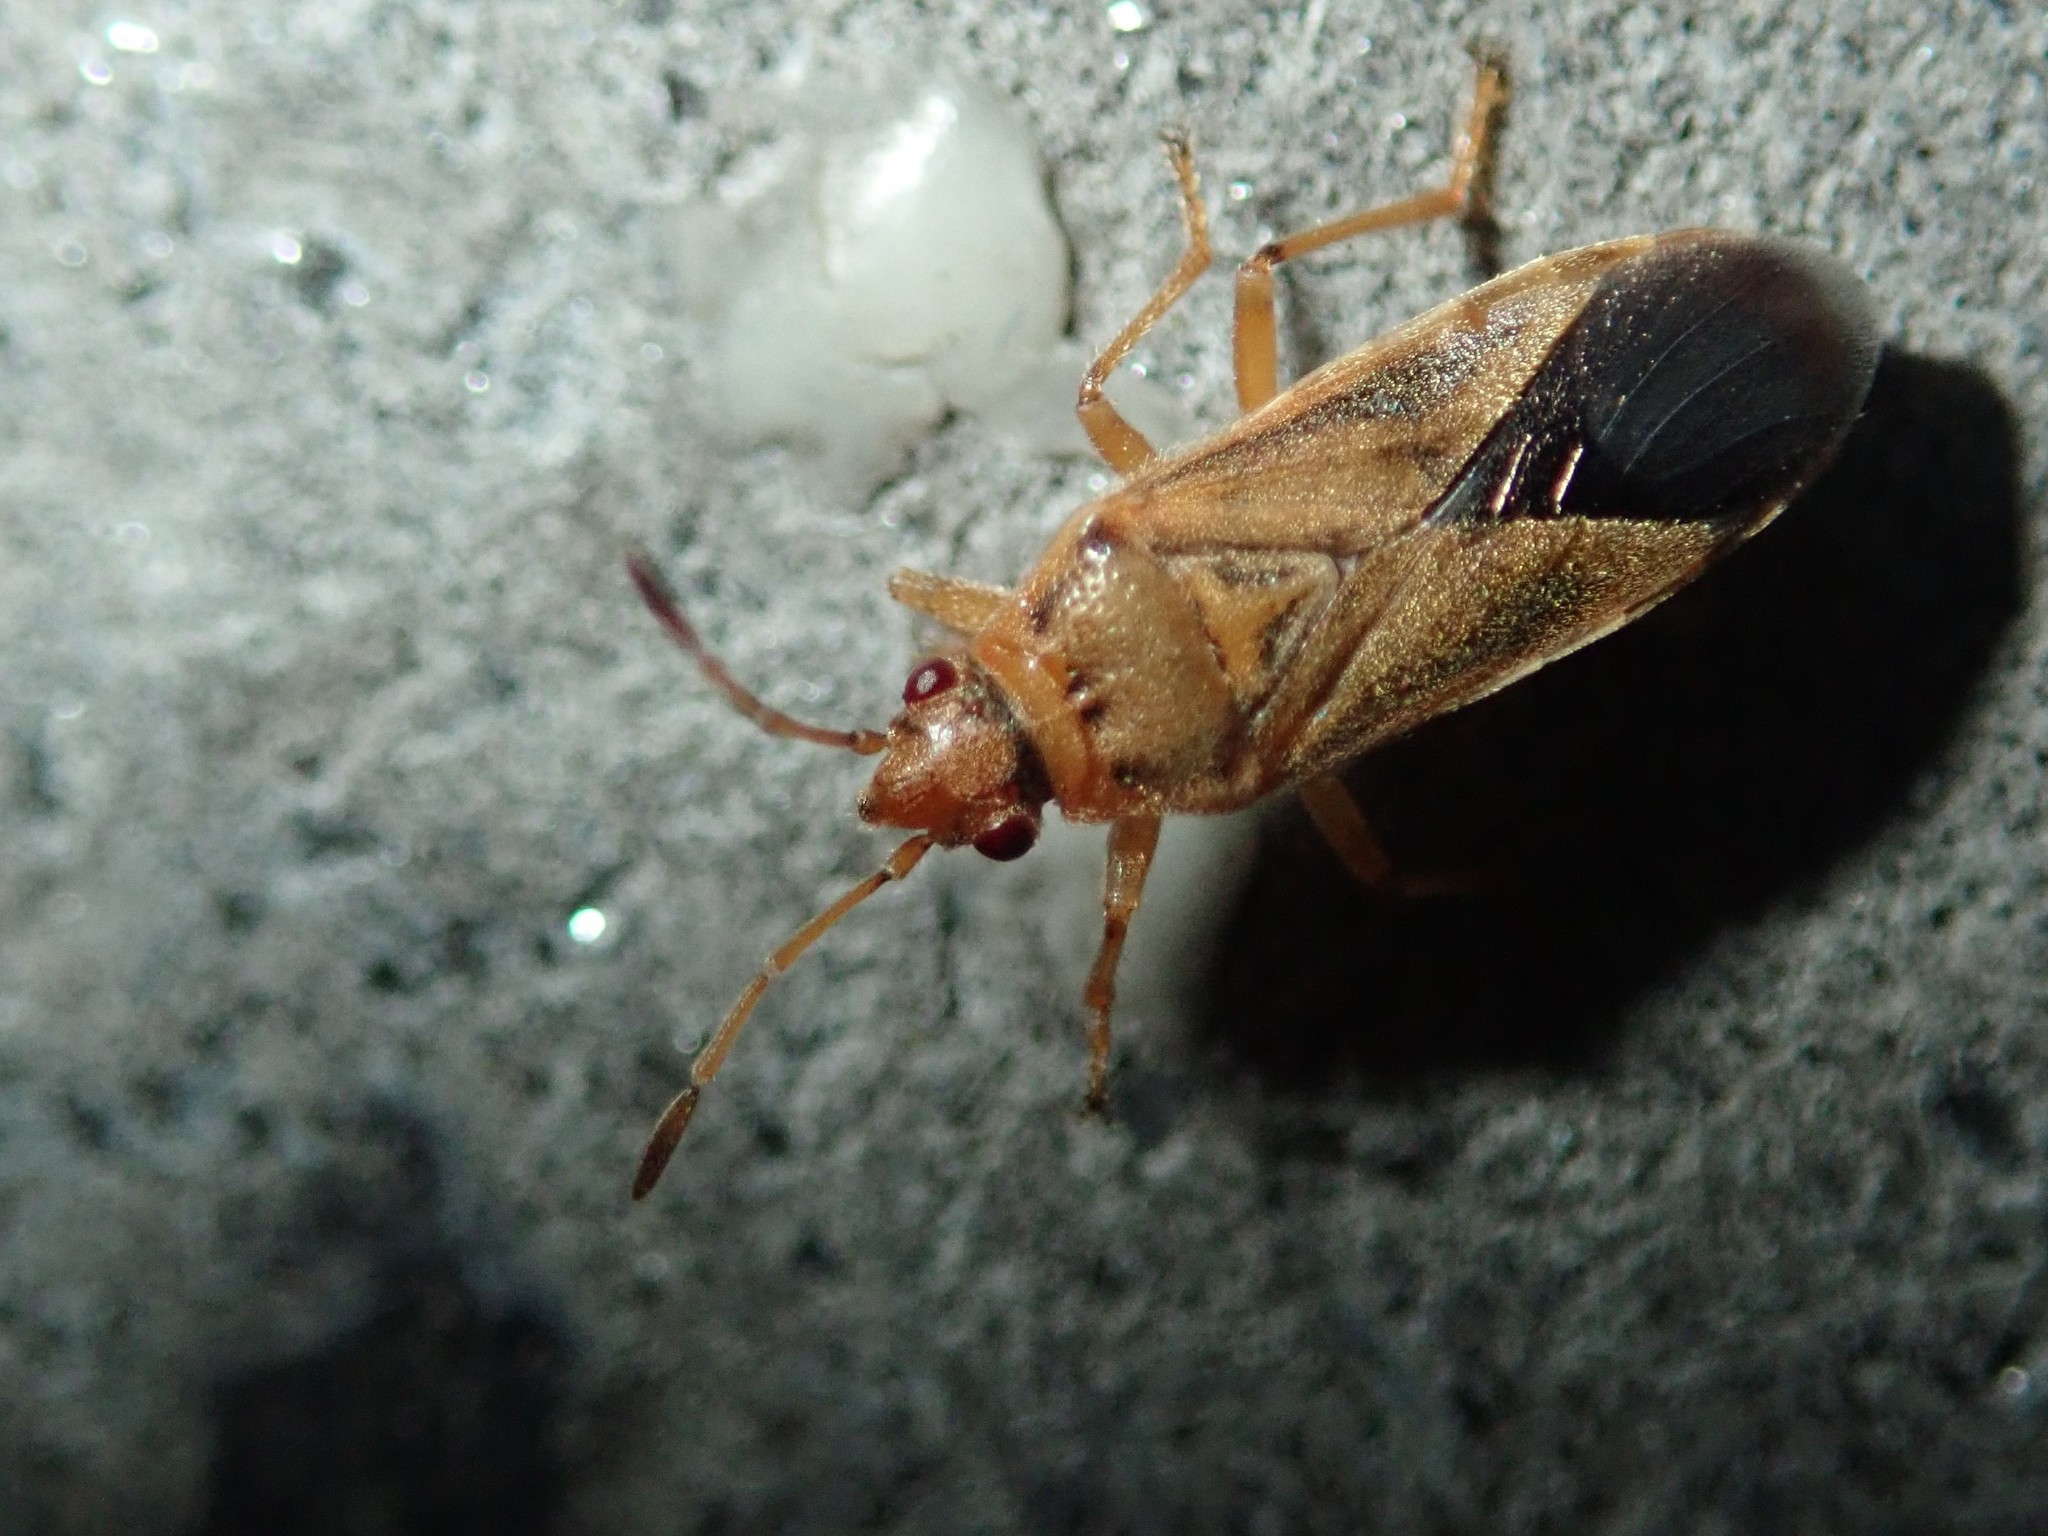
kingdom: Animalia
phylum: Arthropoda
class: Insecta
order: Hemiptera
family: Lygaeidae
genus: Arocatus
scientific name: Arocatus longiceps
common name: Plane tree bug
